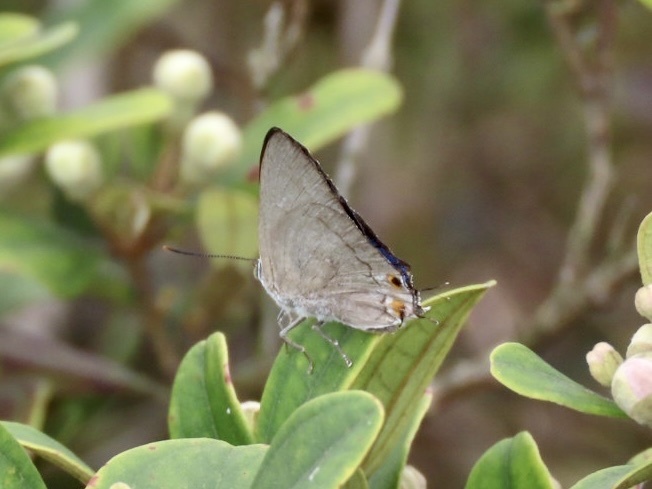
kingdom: Animalia
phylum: Arthropoda
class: Insecta
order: Lepidoptera
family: Lycaenidae
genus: Ancema
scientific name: Ancema blanka
